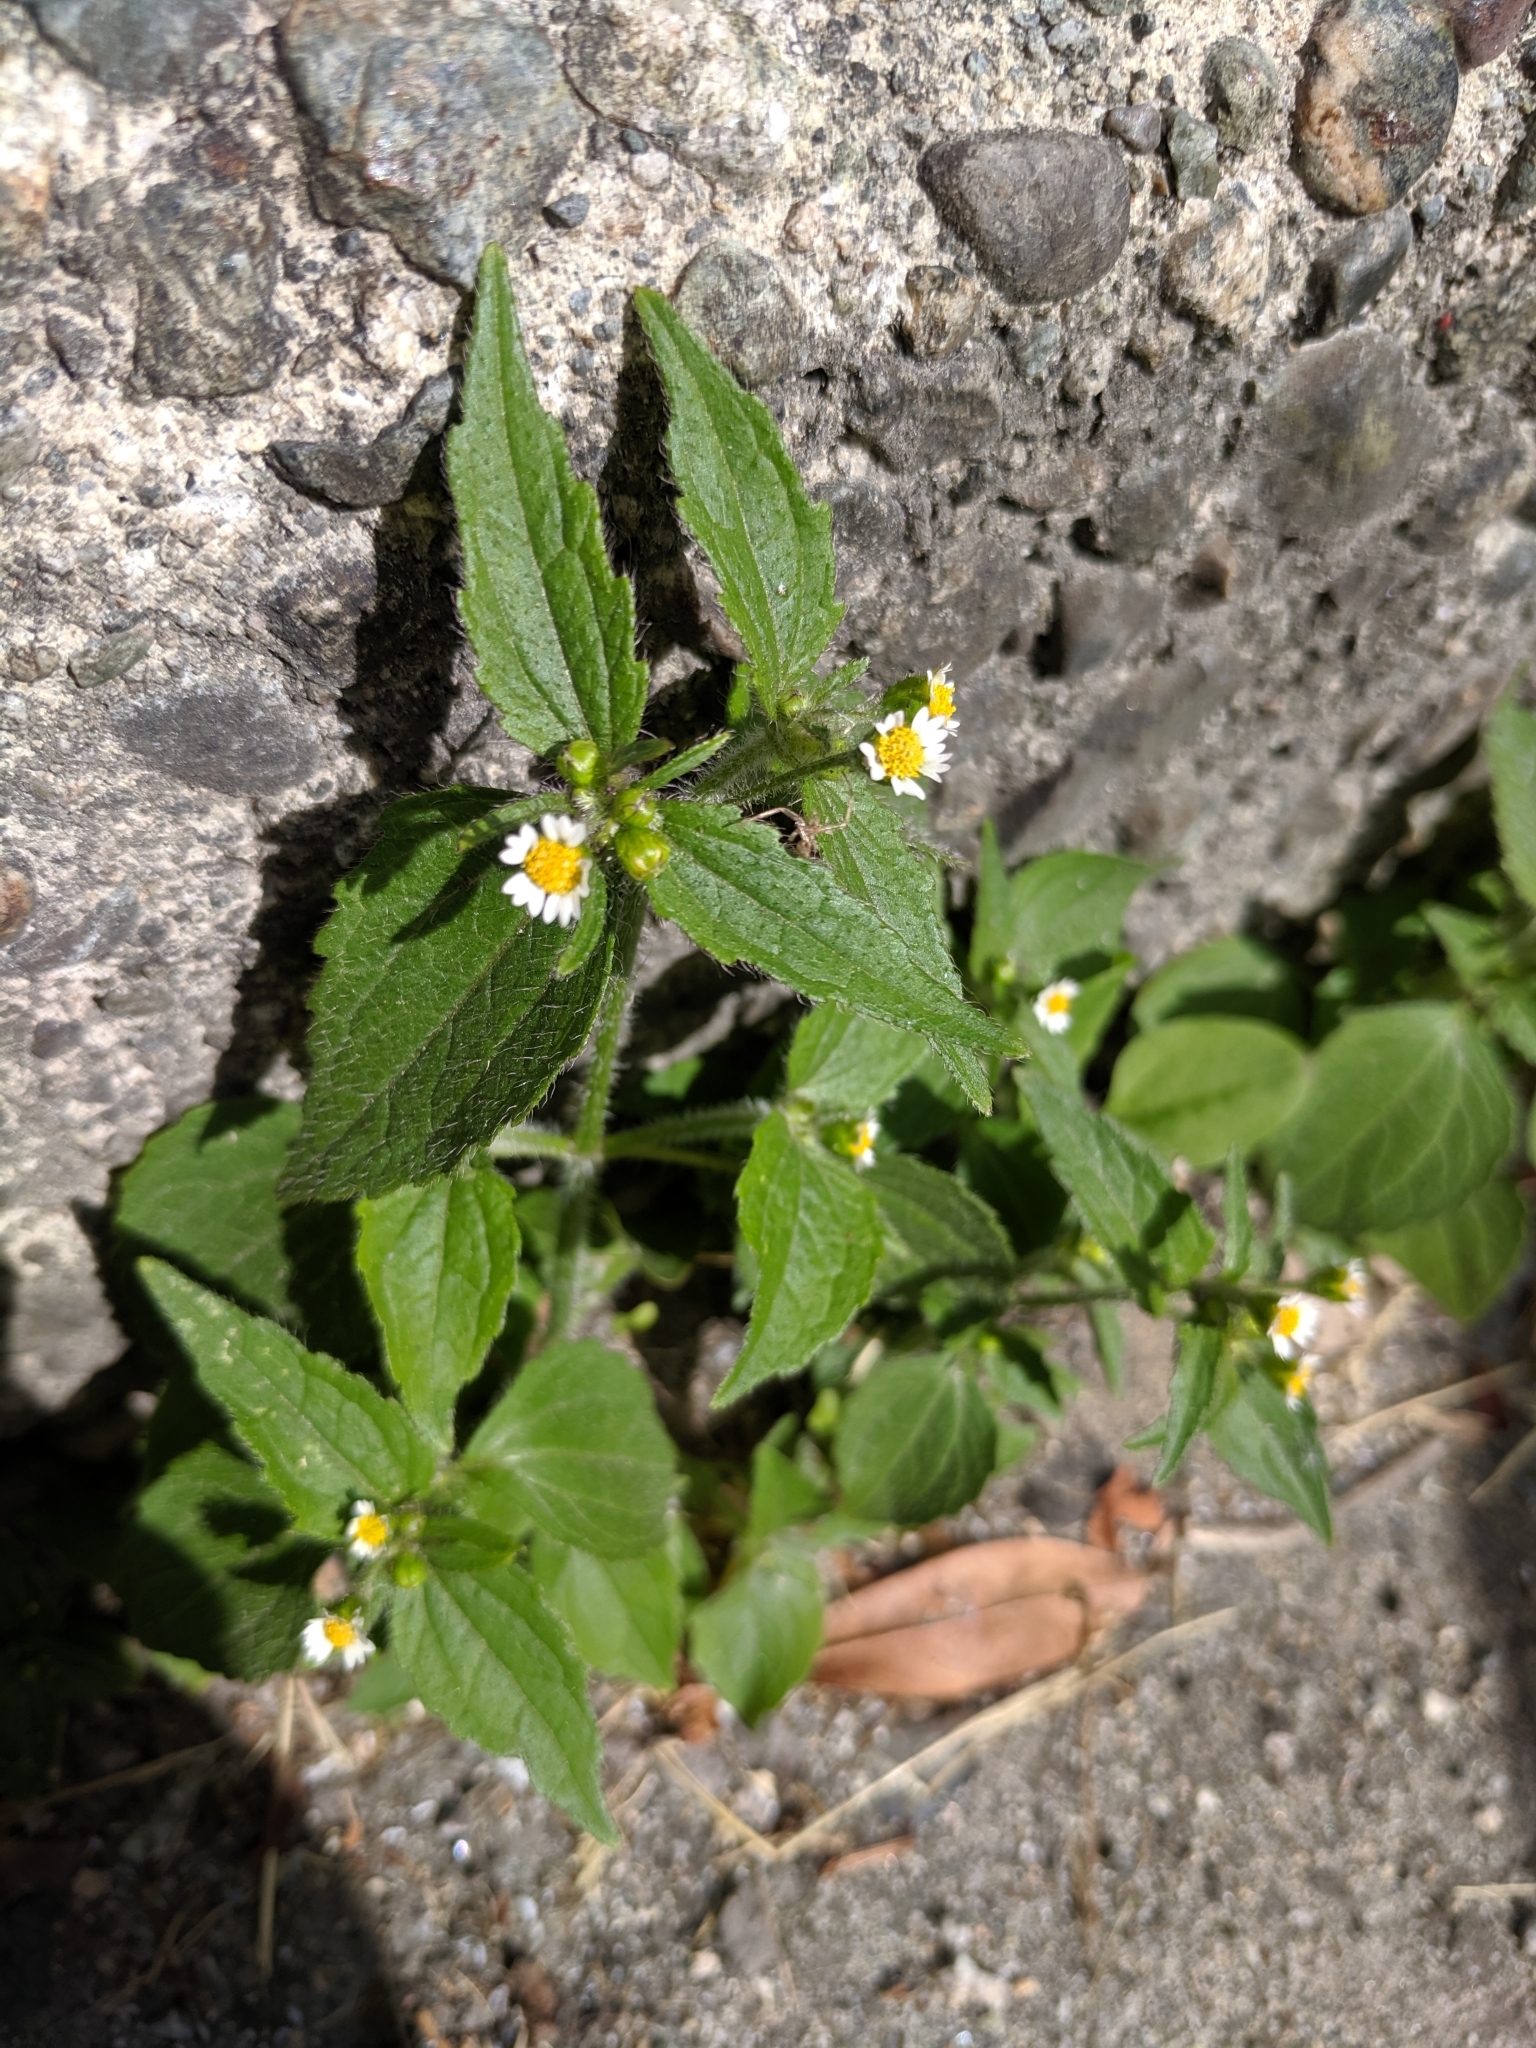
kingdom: Plantae
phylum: Tracheophyta
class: Magnoliopsida
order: Asterales
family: Asteraceae
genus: Galinsoga
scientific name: Galinsoga quadriradiata
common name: Shaggy soldier
